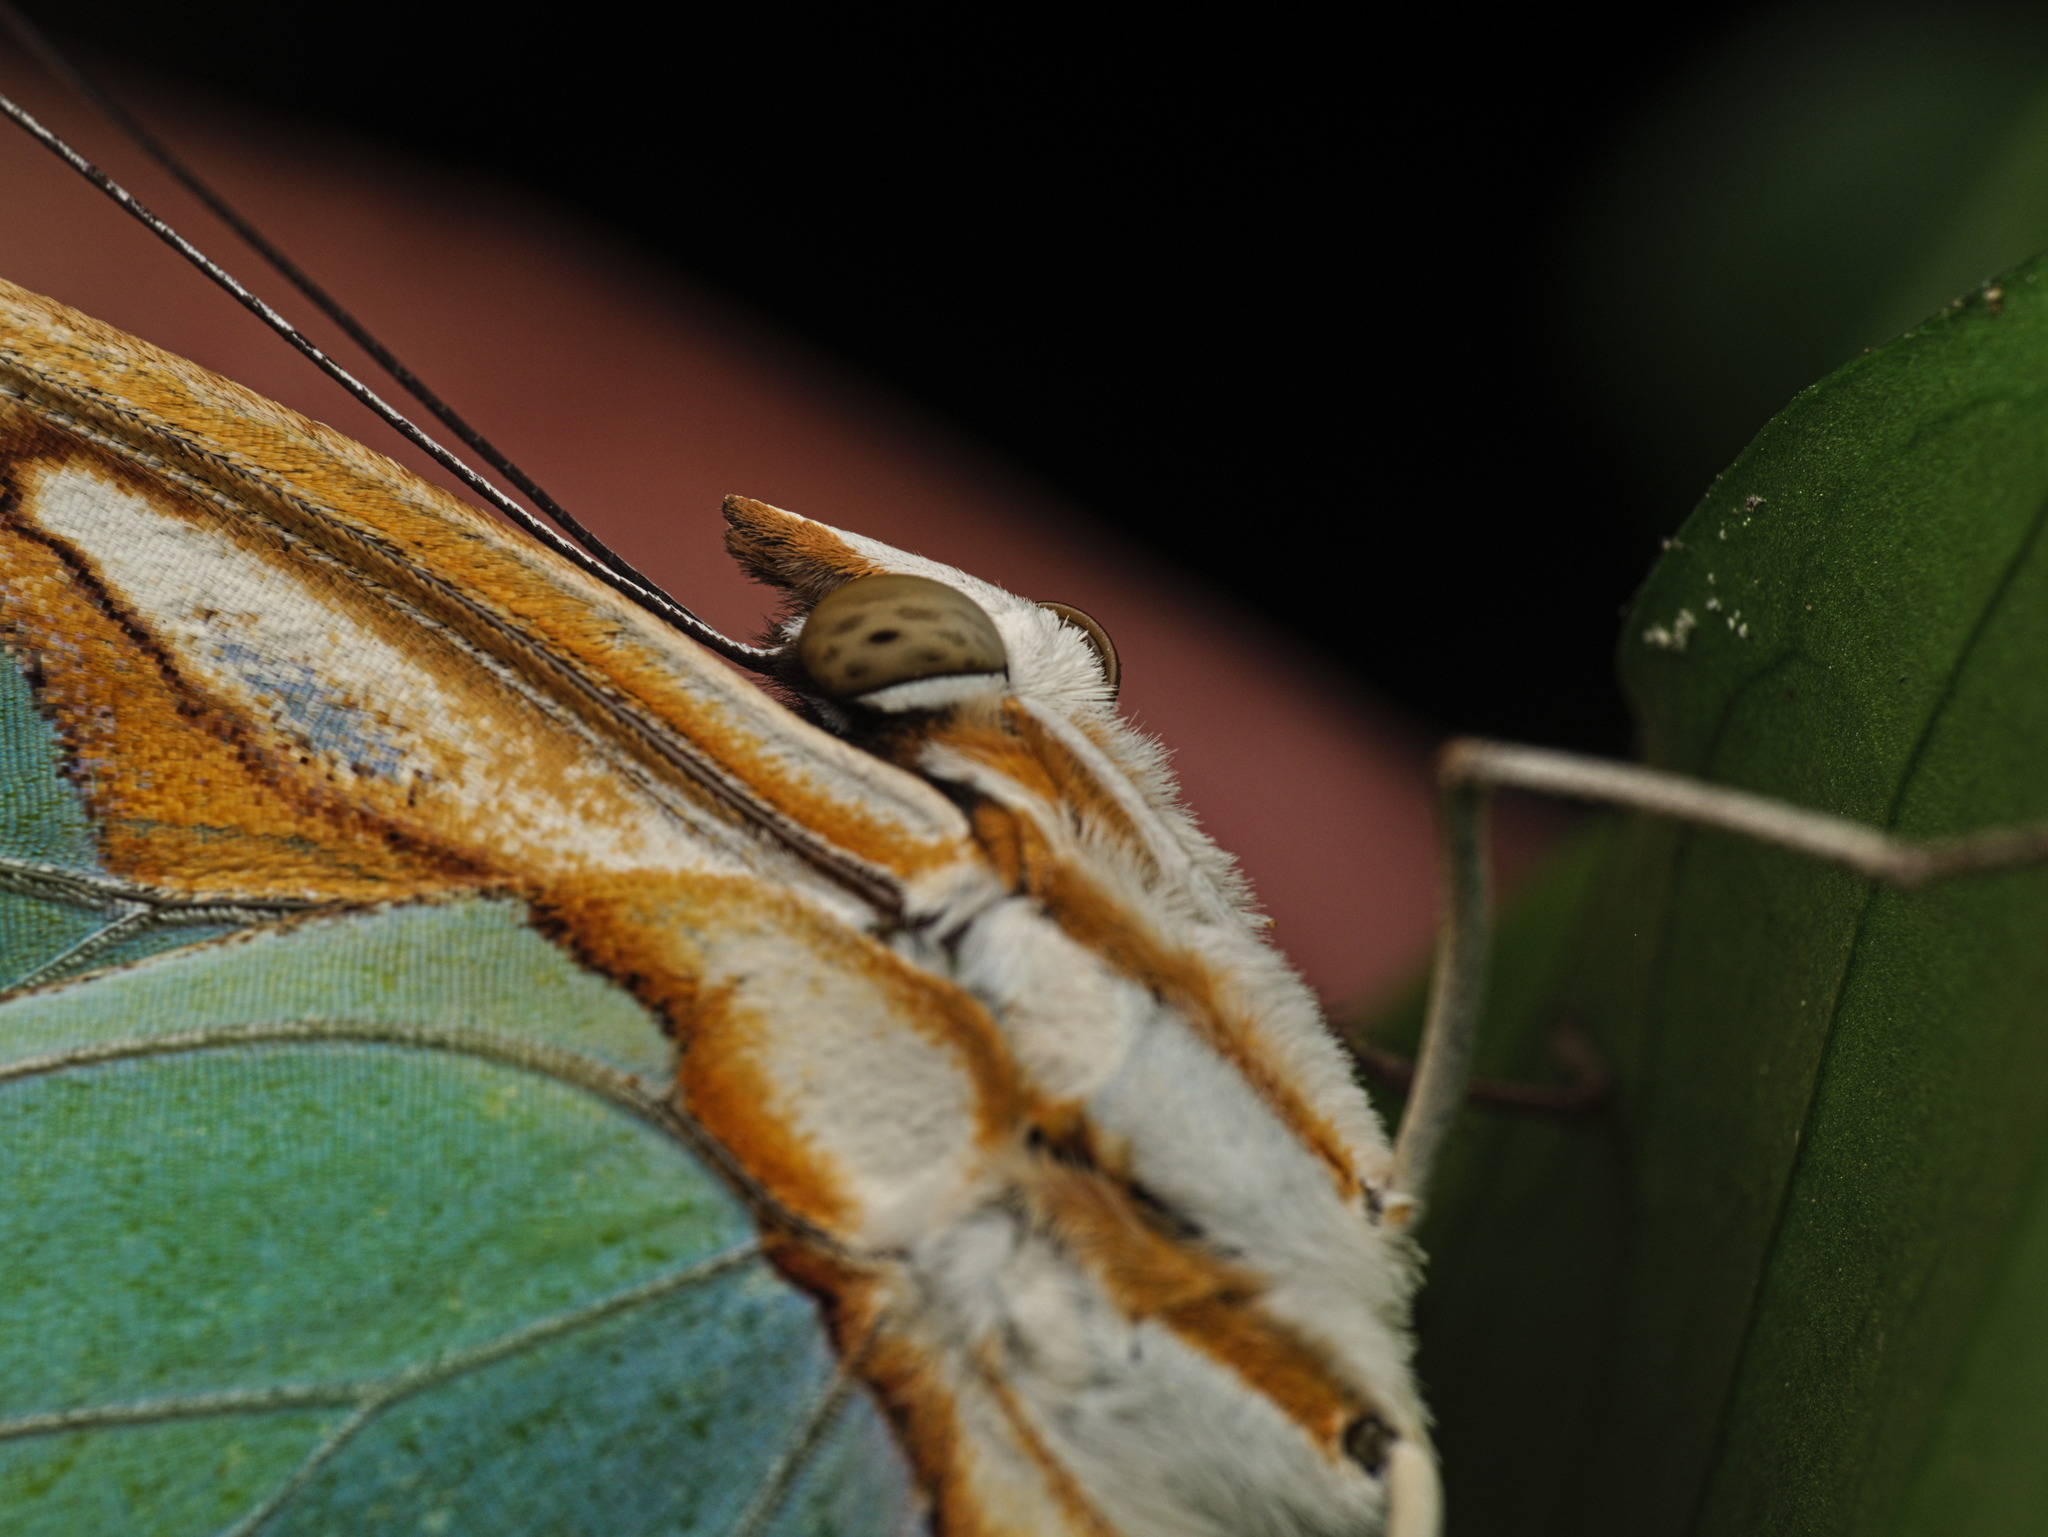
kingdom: Animalia
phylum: Arthropoda
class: Insecta
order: Lepidoptera
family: Nymphalidae
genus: Siproeta
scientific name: Siproeta stelenes
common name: Malachite
